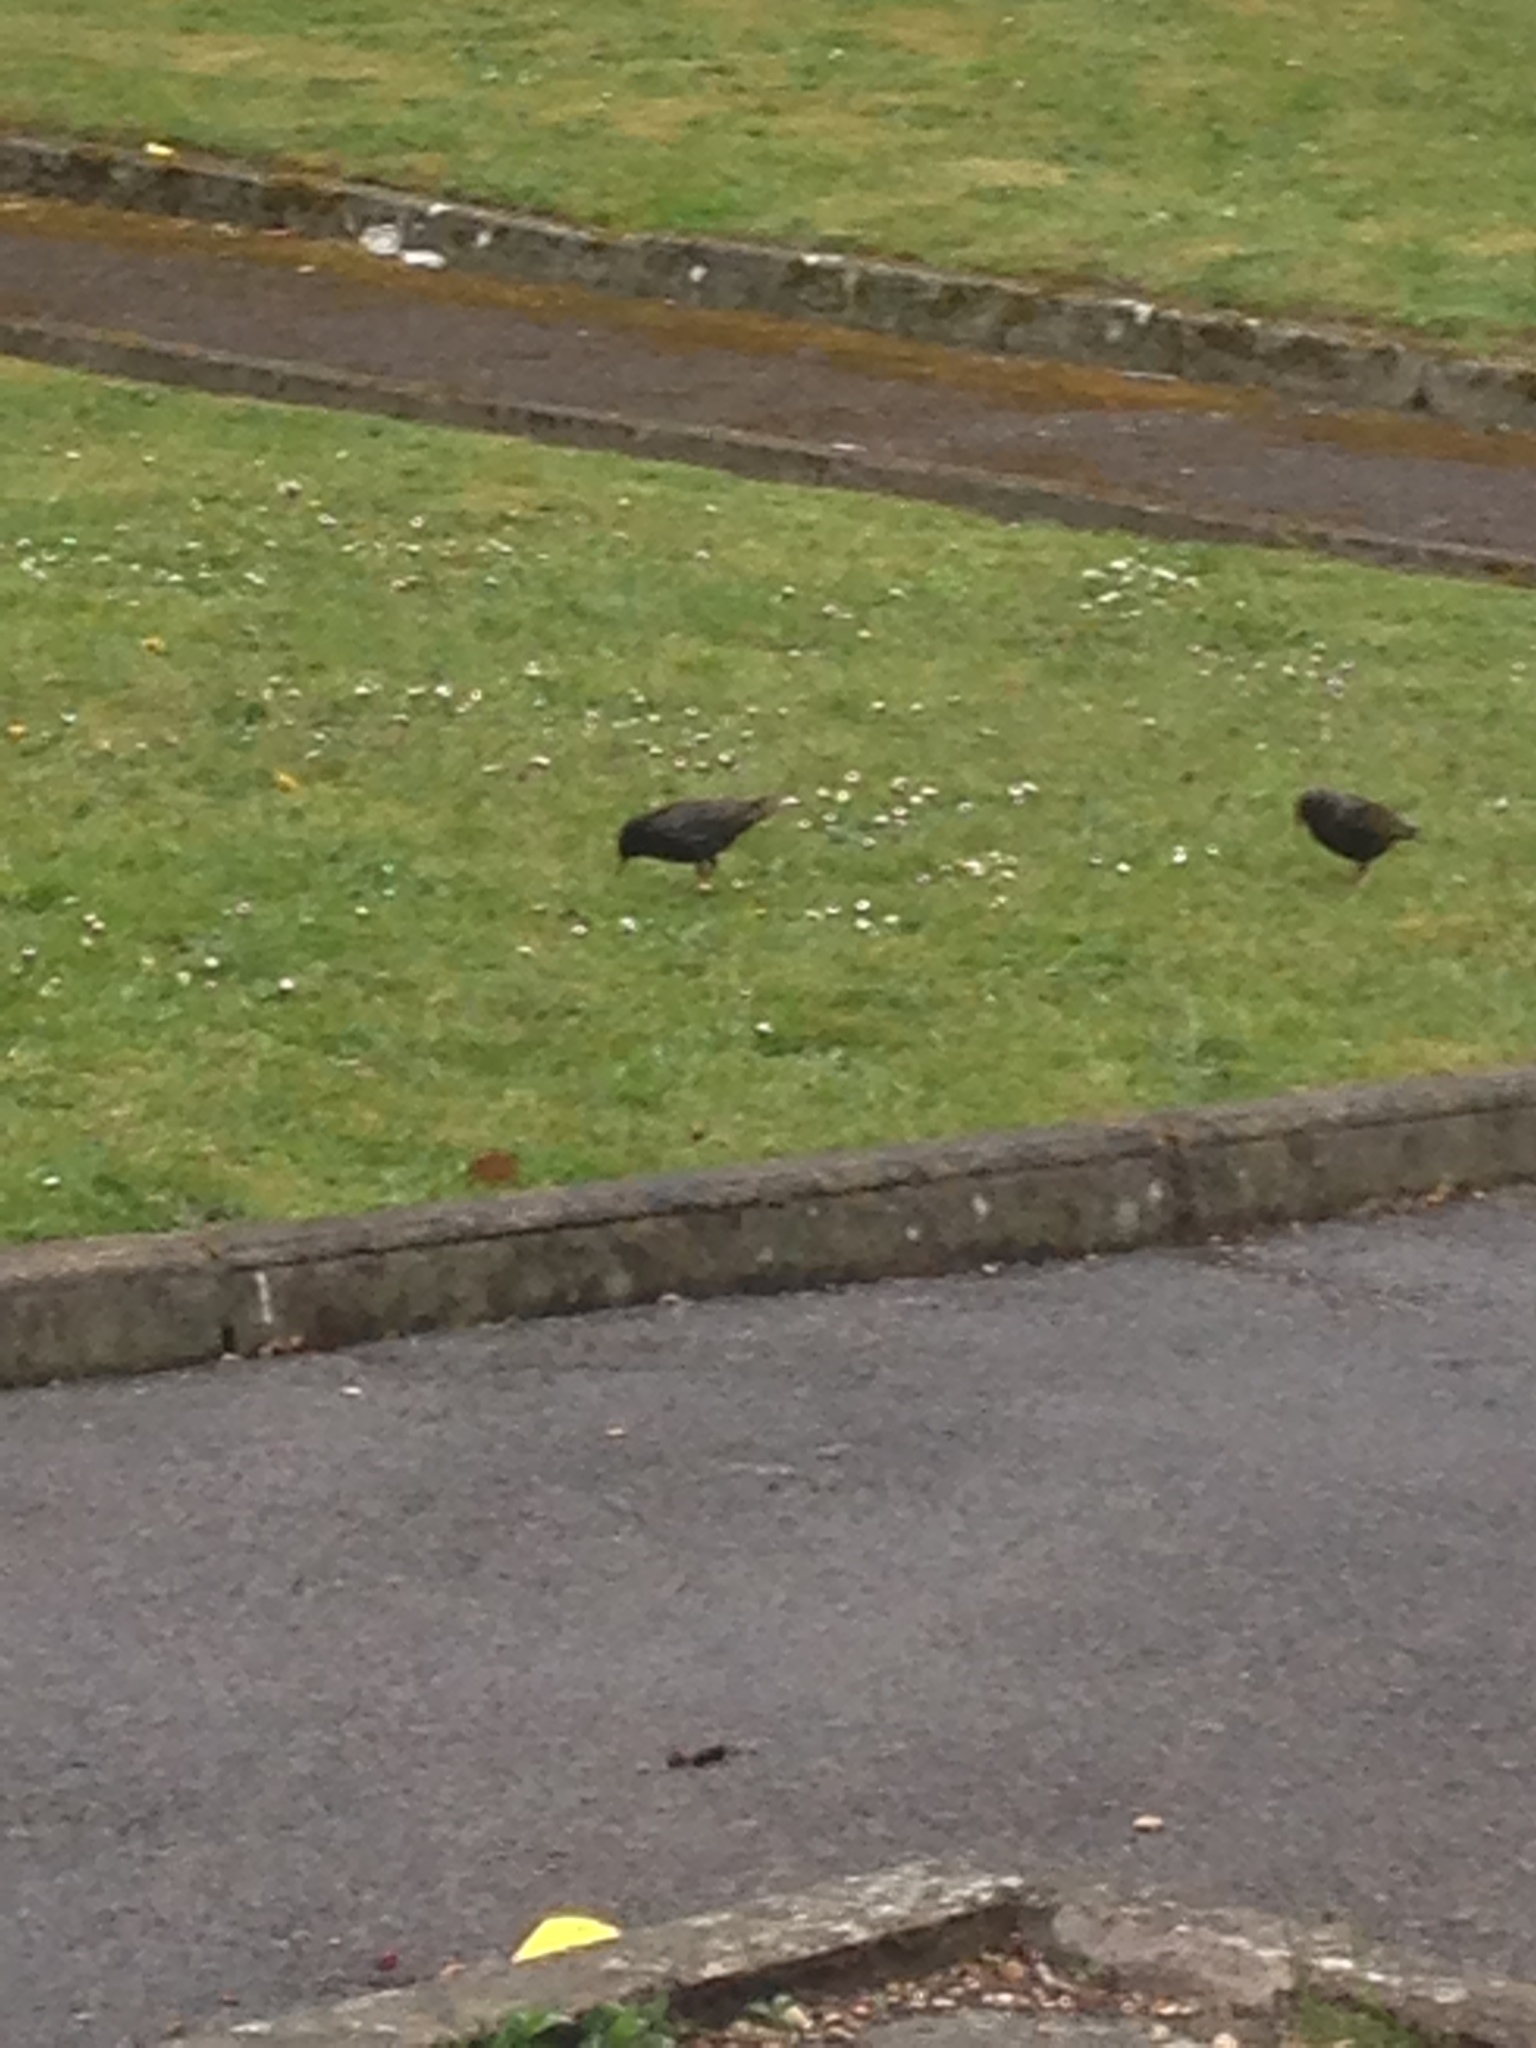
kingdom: Animalia
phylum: Chordata
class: Aves
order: Passeriformes
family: Sturnidae
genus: Sturnus
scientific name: Sturnus vulgaris
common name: Common starling
